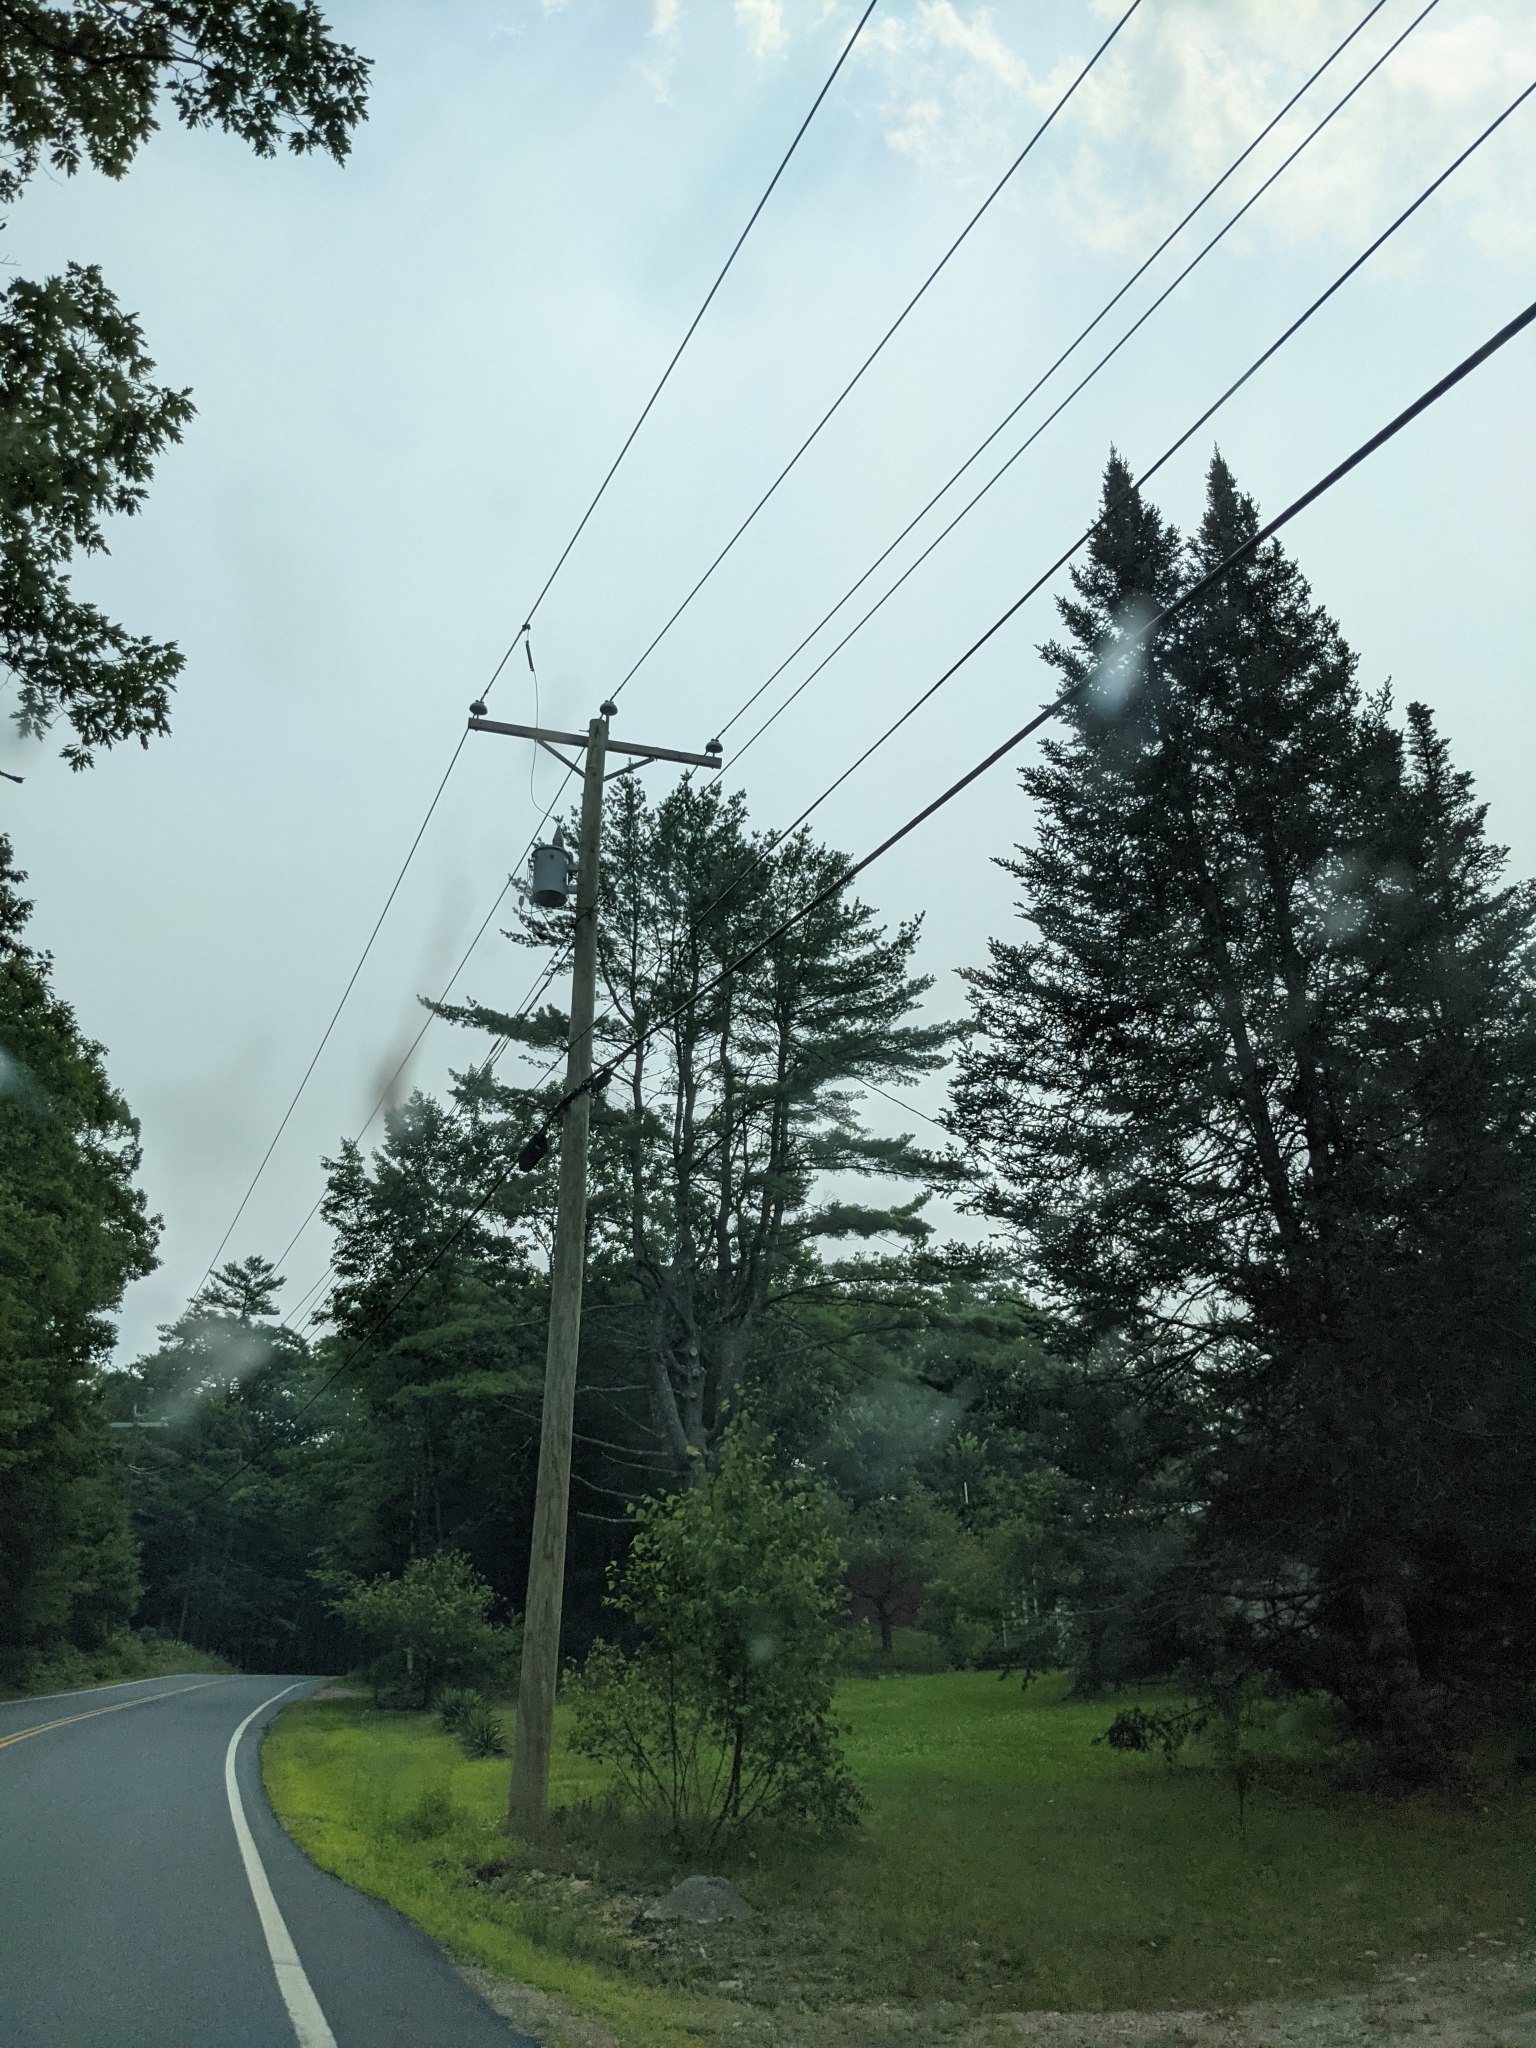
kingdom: Plantae
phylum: Tracheophyta
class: Pinopsida
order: Pinales
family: Pinaceae
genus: Pinus
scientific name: Pinus strobus
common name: Weymouth pine
